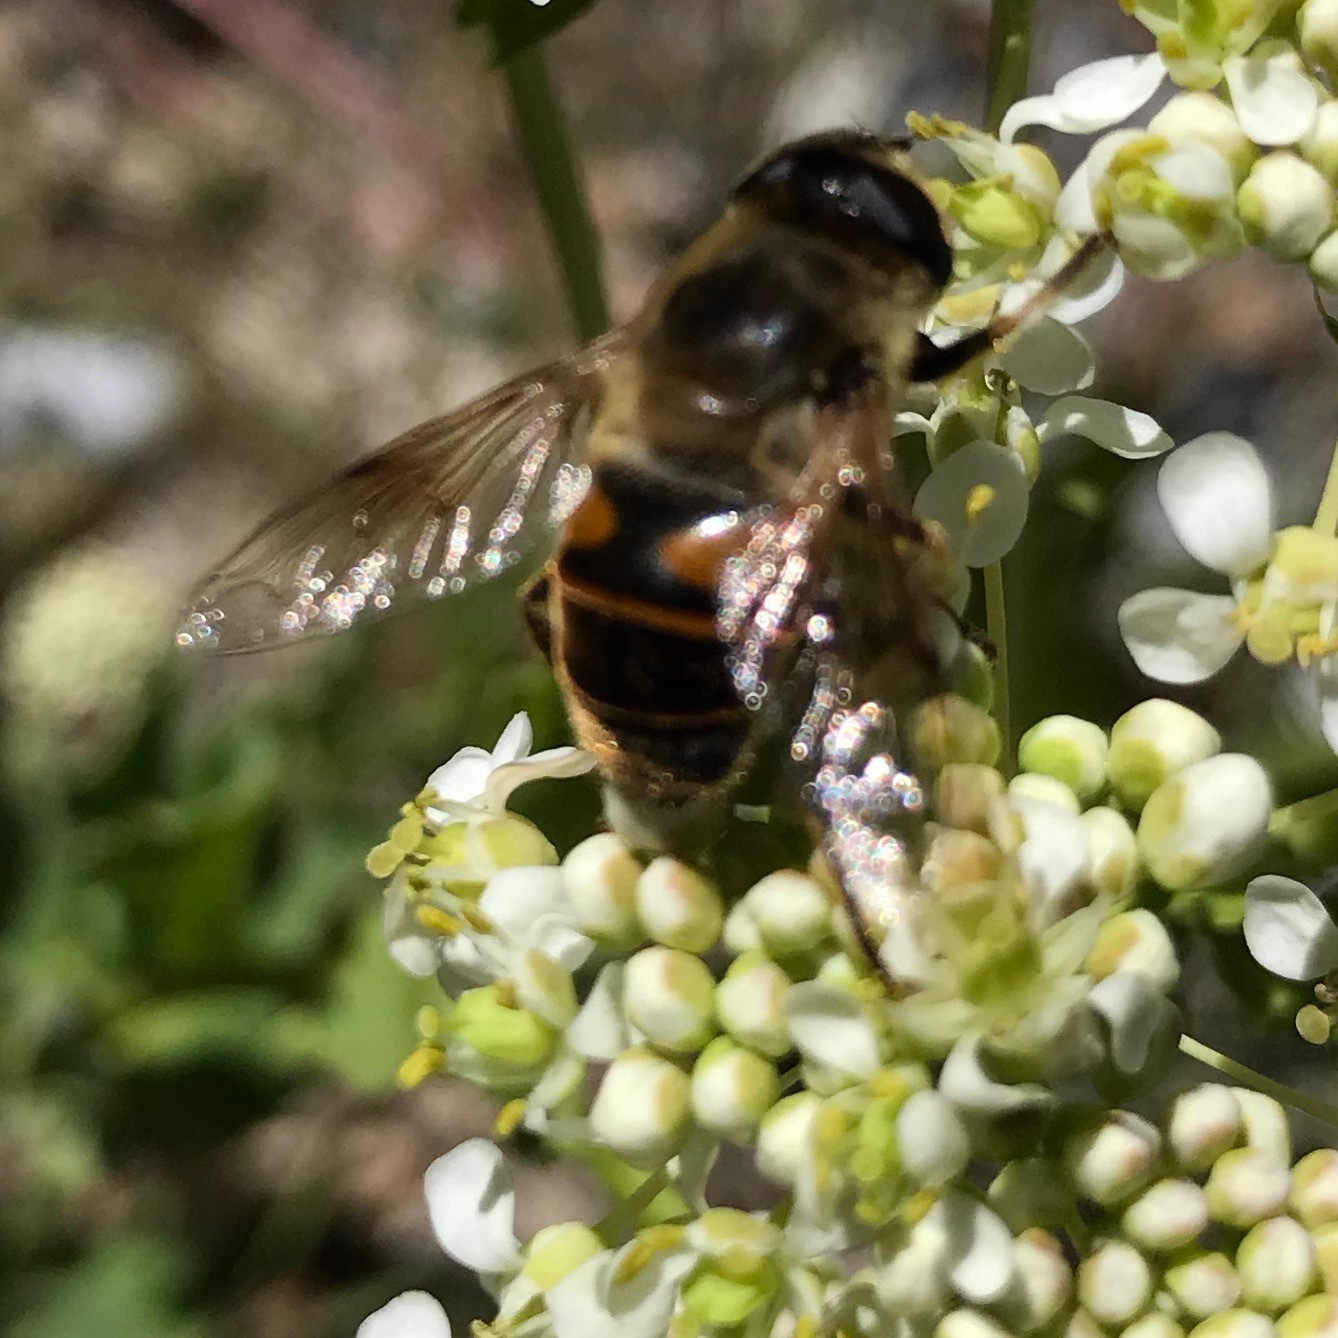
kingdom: Animalia
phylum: Arthropoda
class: Insecta
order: Diptera
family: Syrphidae
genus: Eristalis
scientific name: Eristalis tenax
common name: Drone fly
